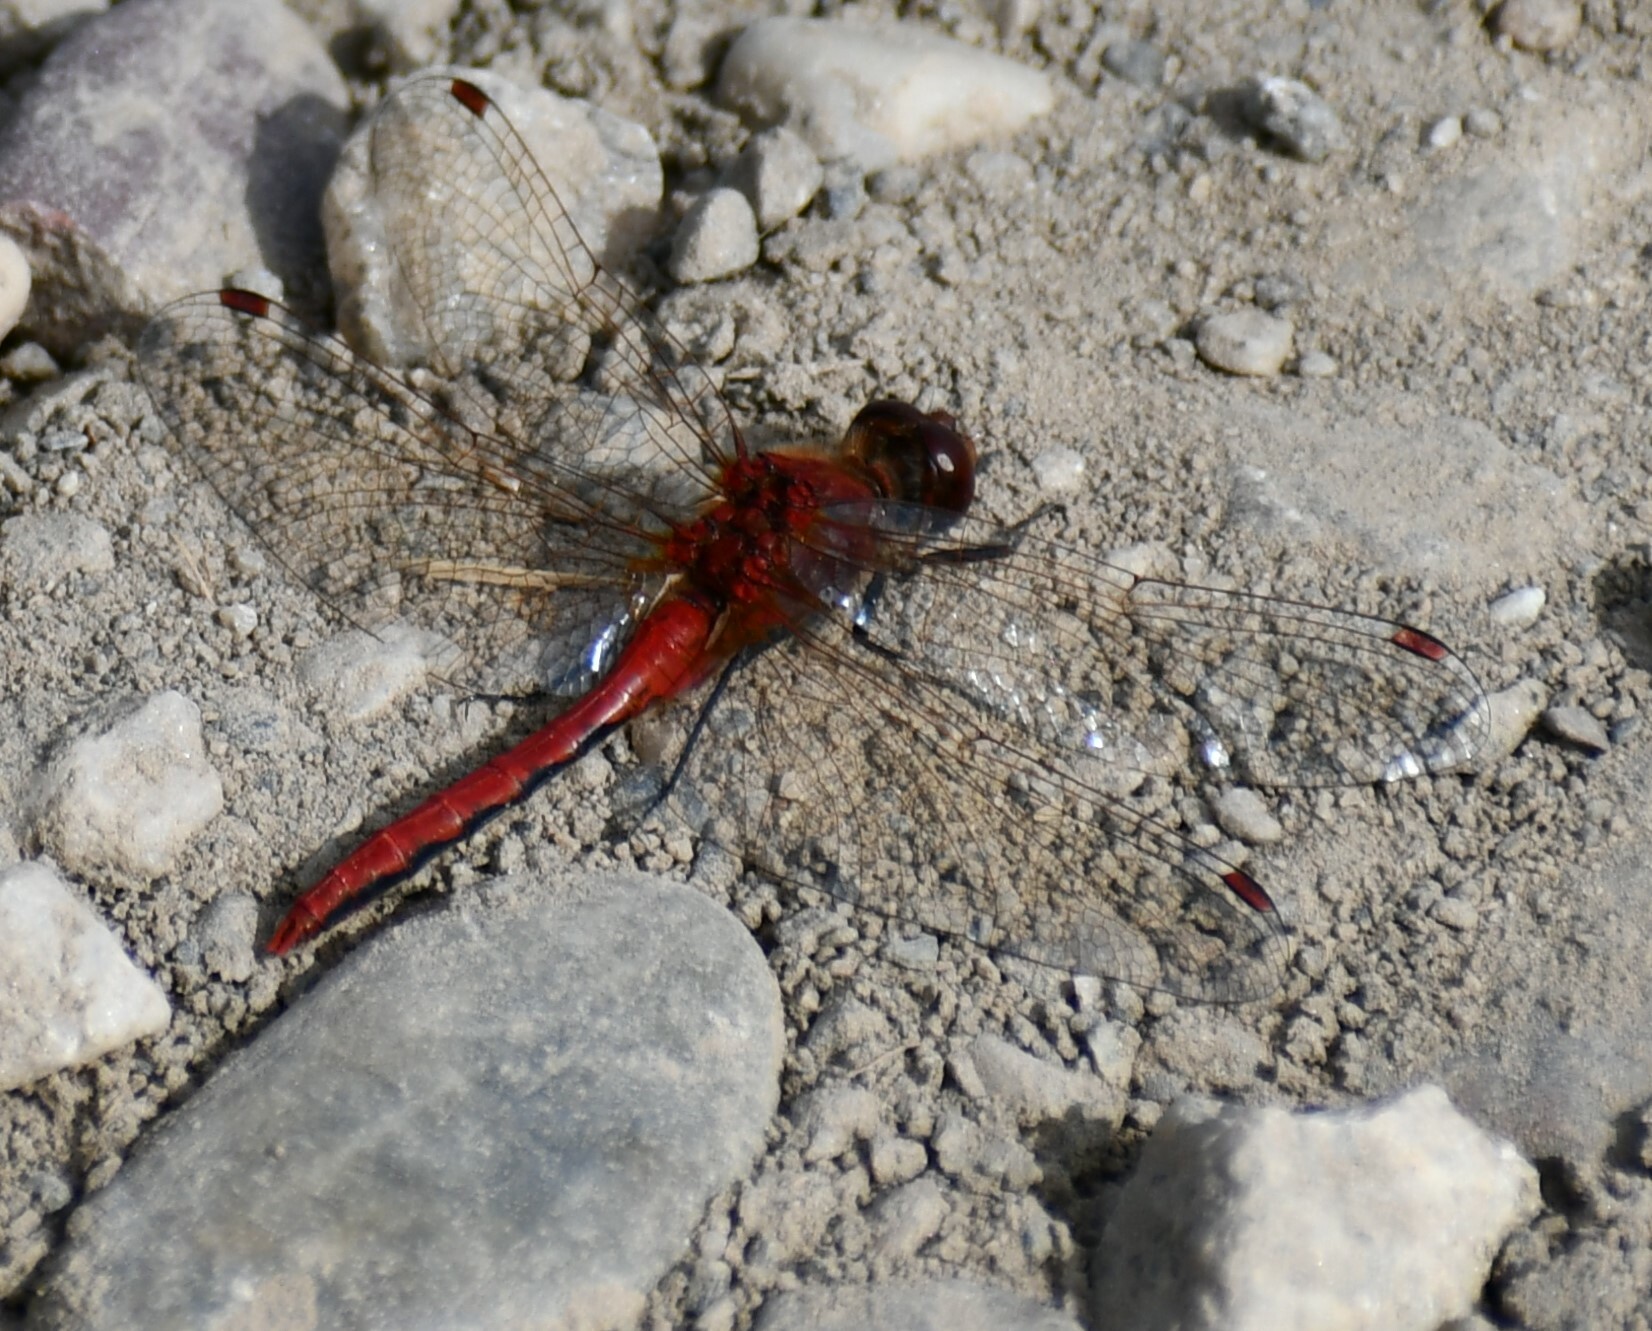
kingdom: Animalia
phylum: Arthropoda
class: Insecta
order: Odonata
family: Libellulidae
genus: Sympetrum
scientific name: Sympetrum internum
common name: Cherry-faced meadowhawk
